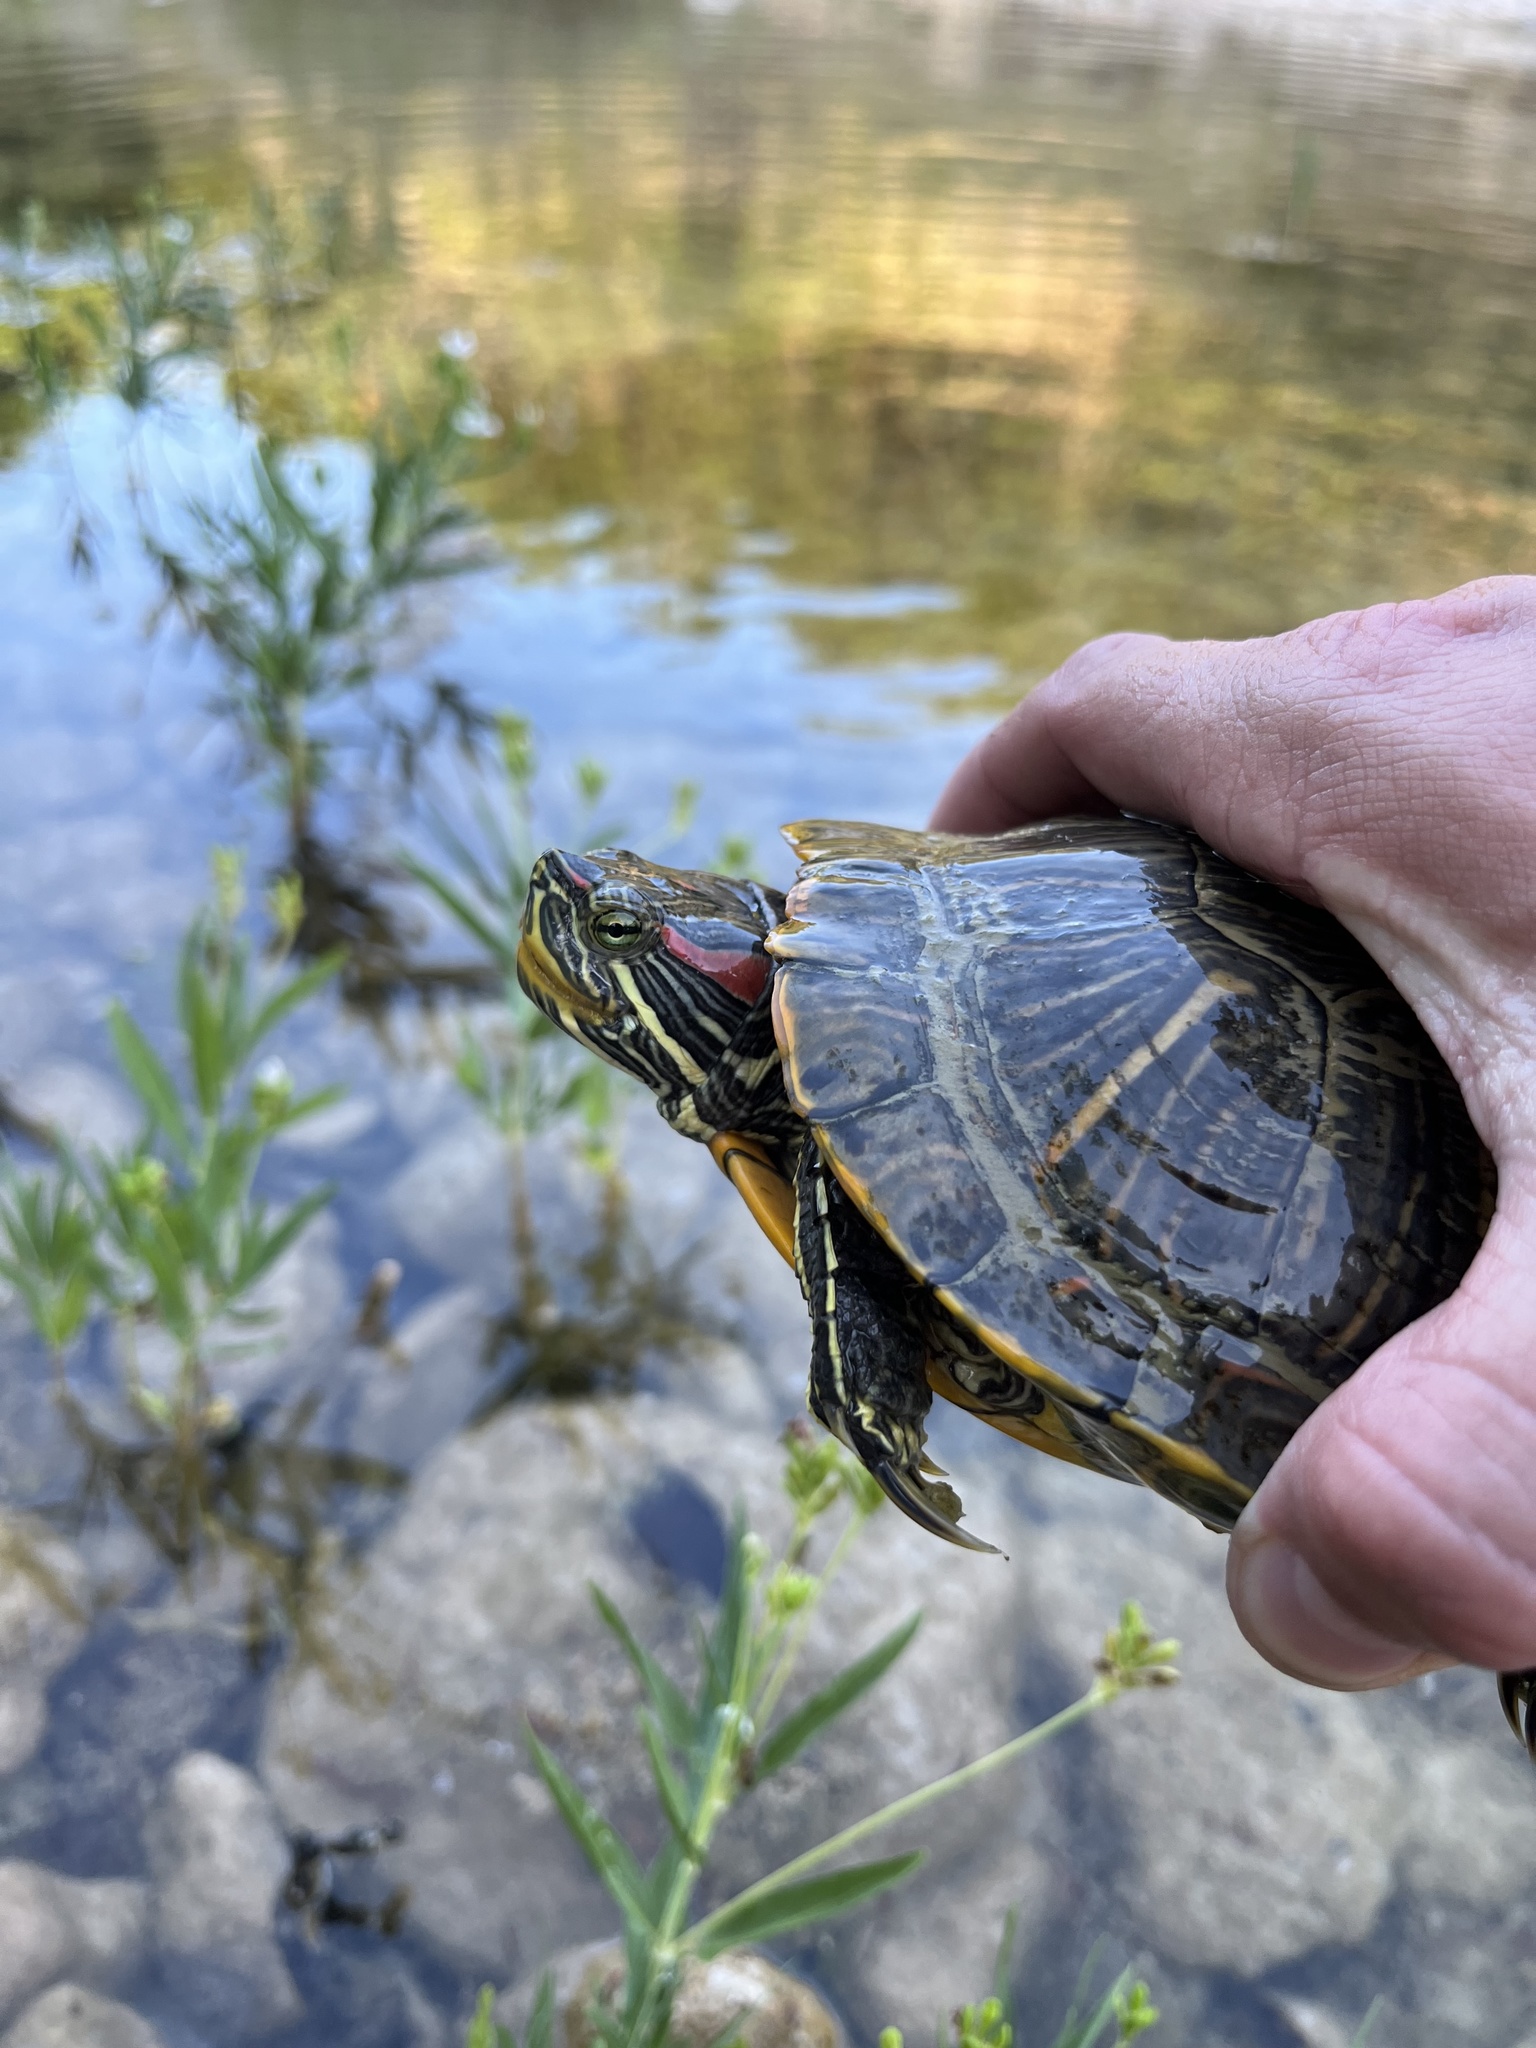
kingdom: Animalia
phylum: Chordata
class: Testudines
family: Emydidae
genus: Trachemys
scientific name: Trachemys scripta
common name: Slider
